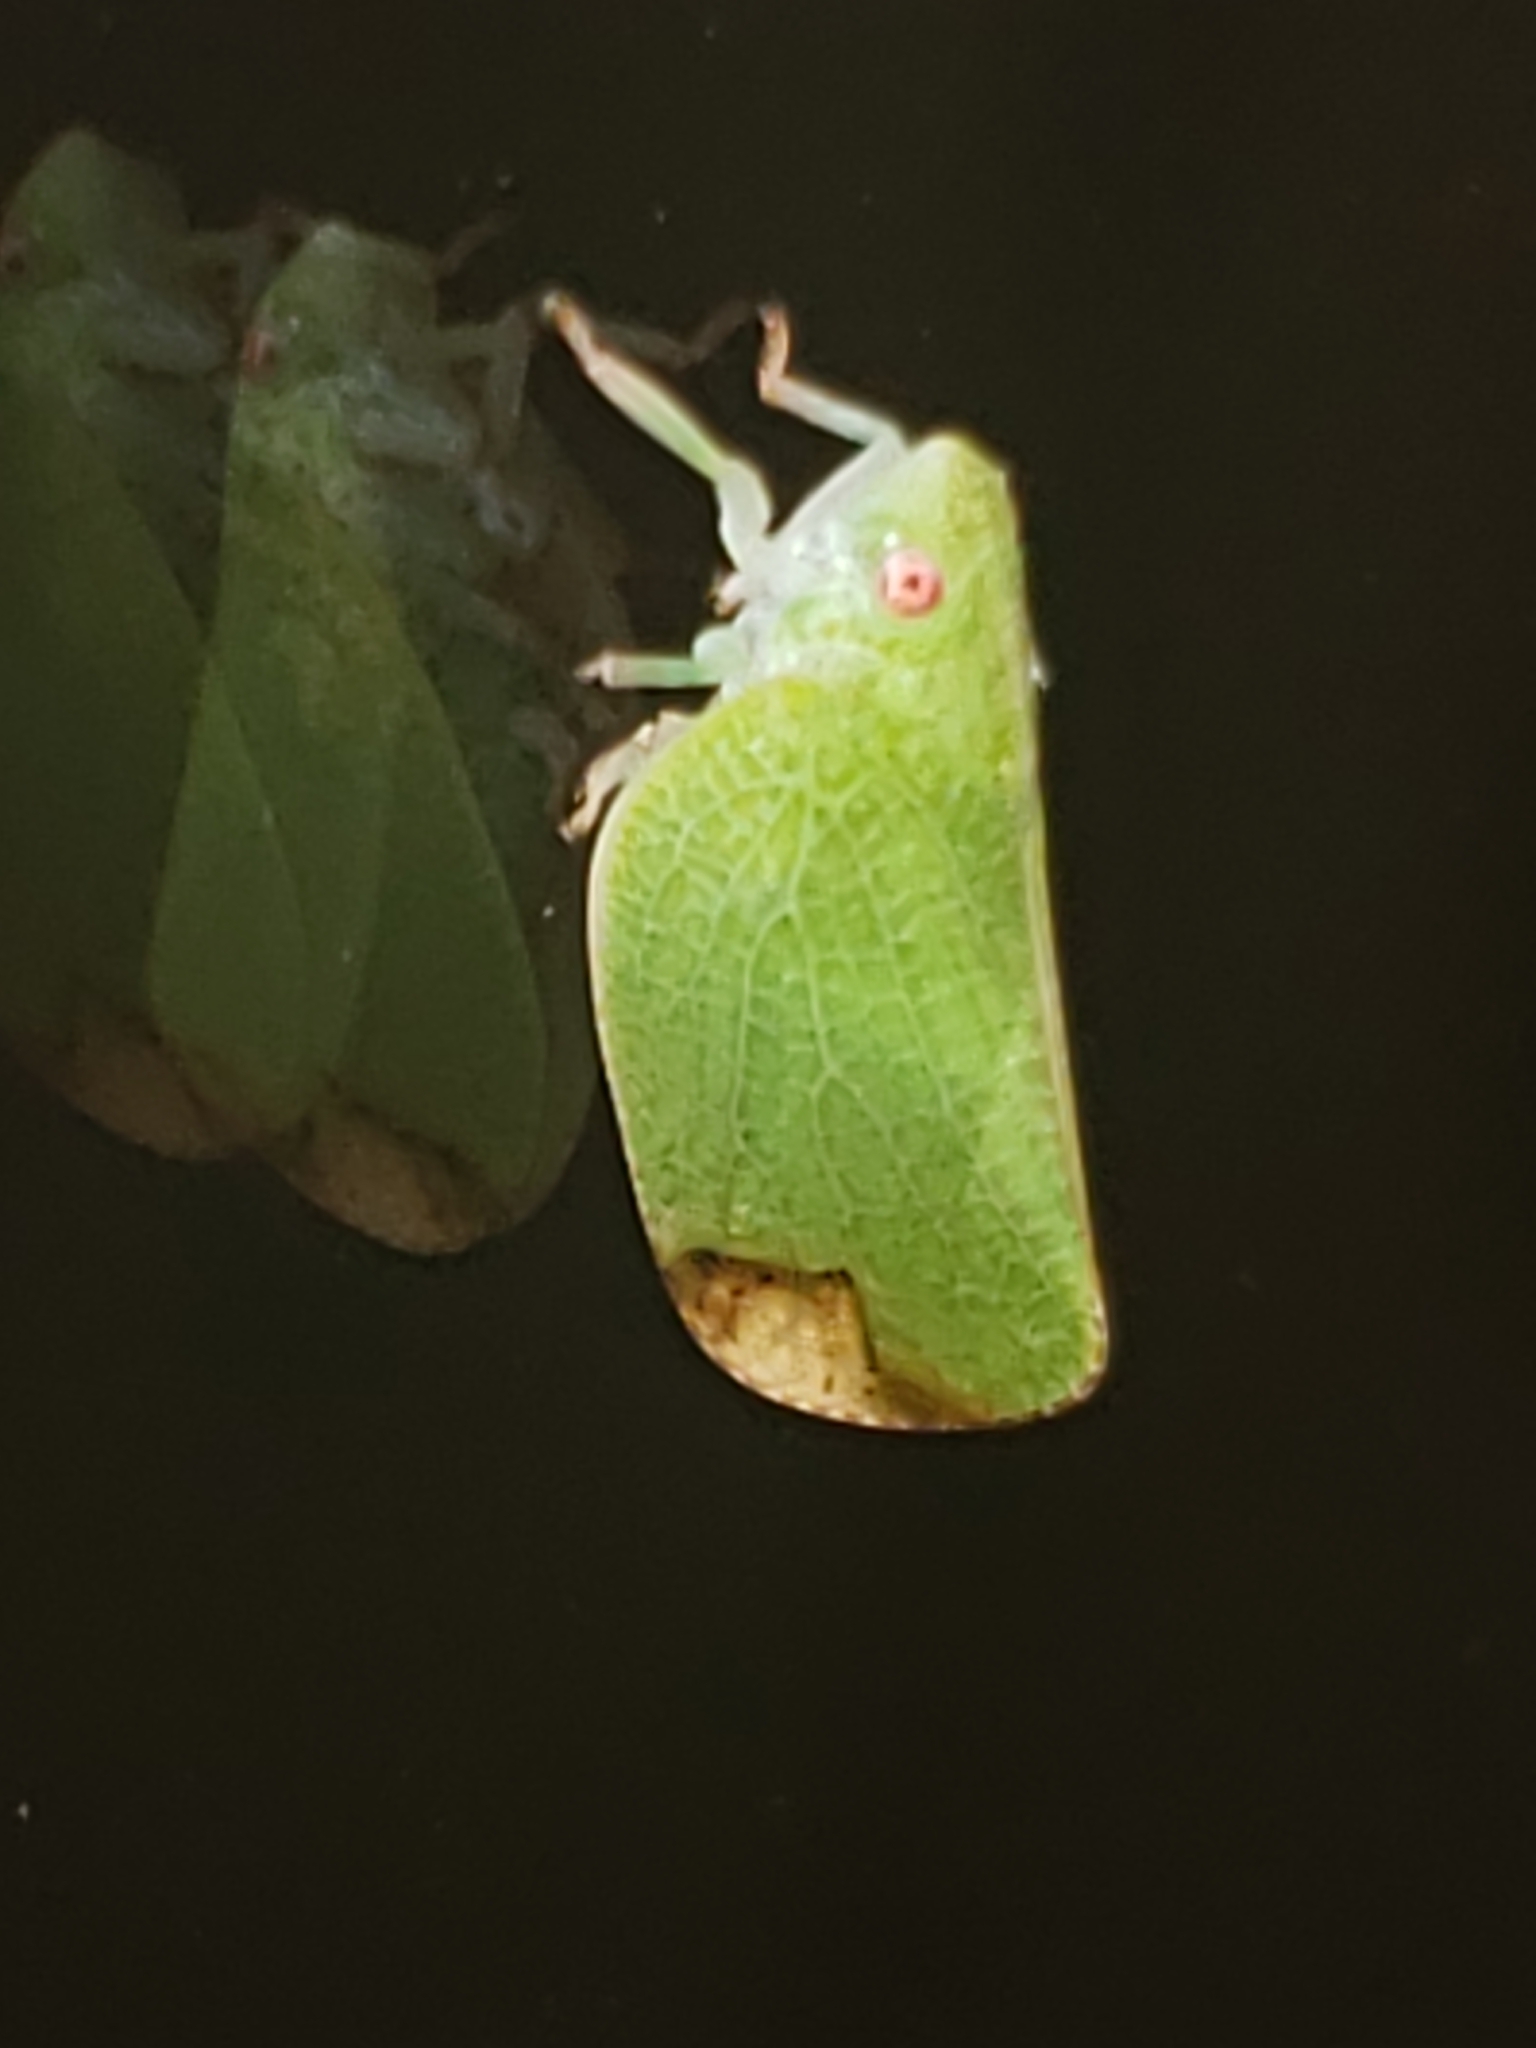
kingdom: Animalia
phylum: Arthropoda
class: Insecta
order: Hemiptera
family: Acanaloniidae
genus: Acanalonia
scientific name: Acanalonia conica
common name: Green cone-headed planthopper
